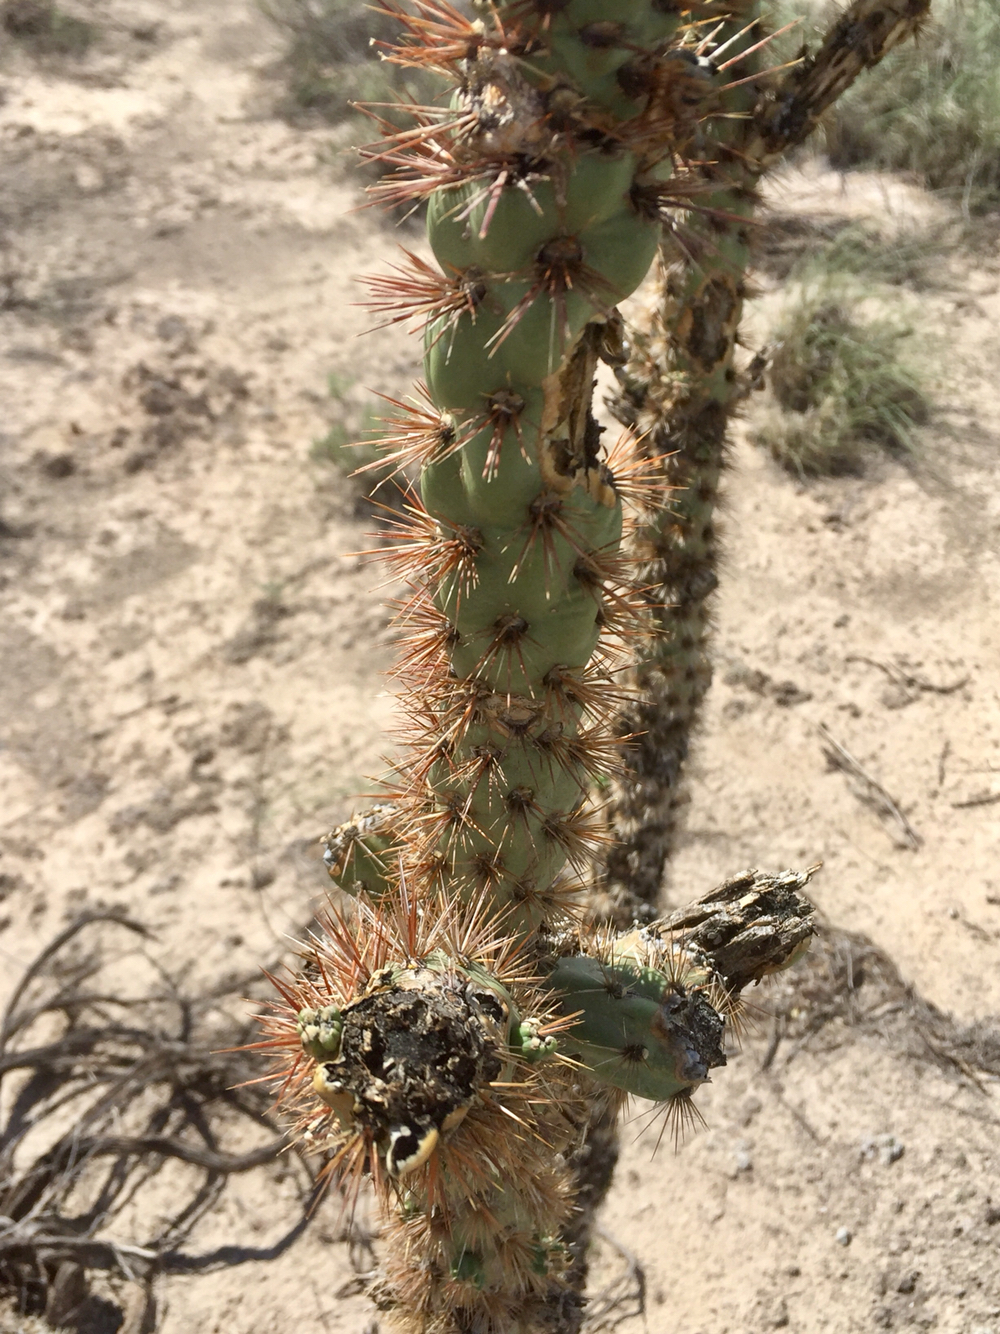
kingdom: Plantae
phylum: Tracheophyta
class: Magnoliopsida
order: Caryophyllales
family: Cactaceae
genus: Cylindropuntia
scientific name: Cylindropuntia imbricata
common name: Candelabrum cactus
